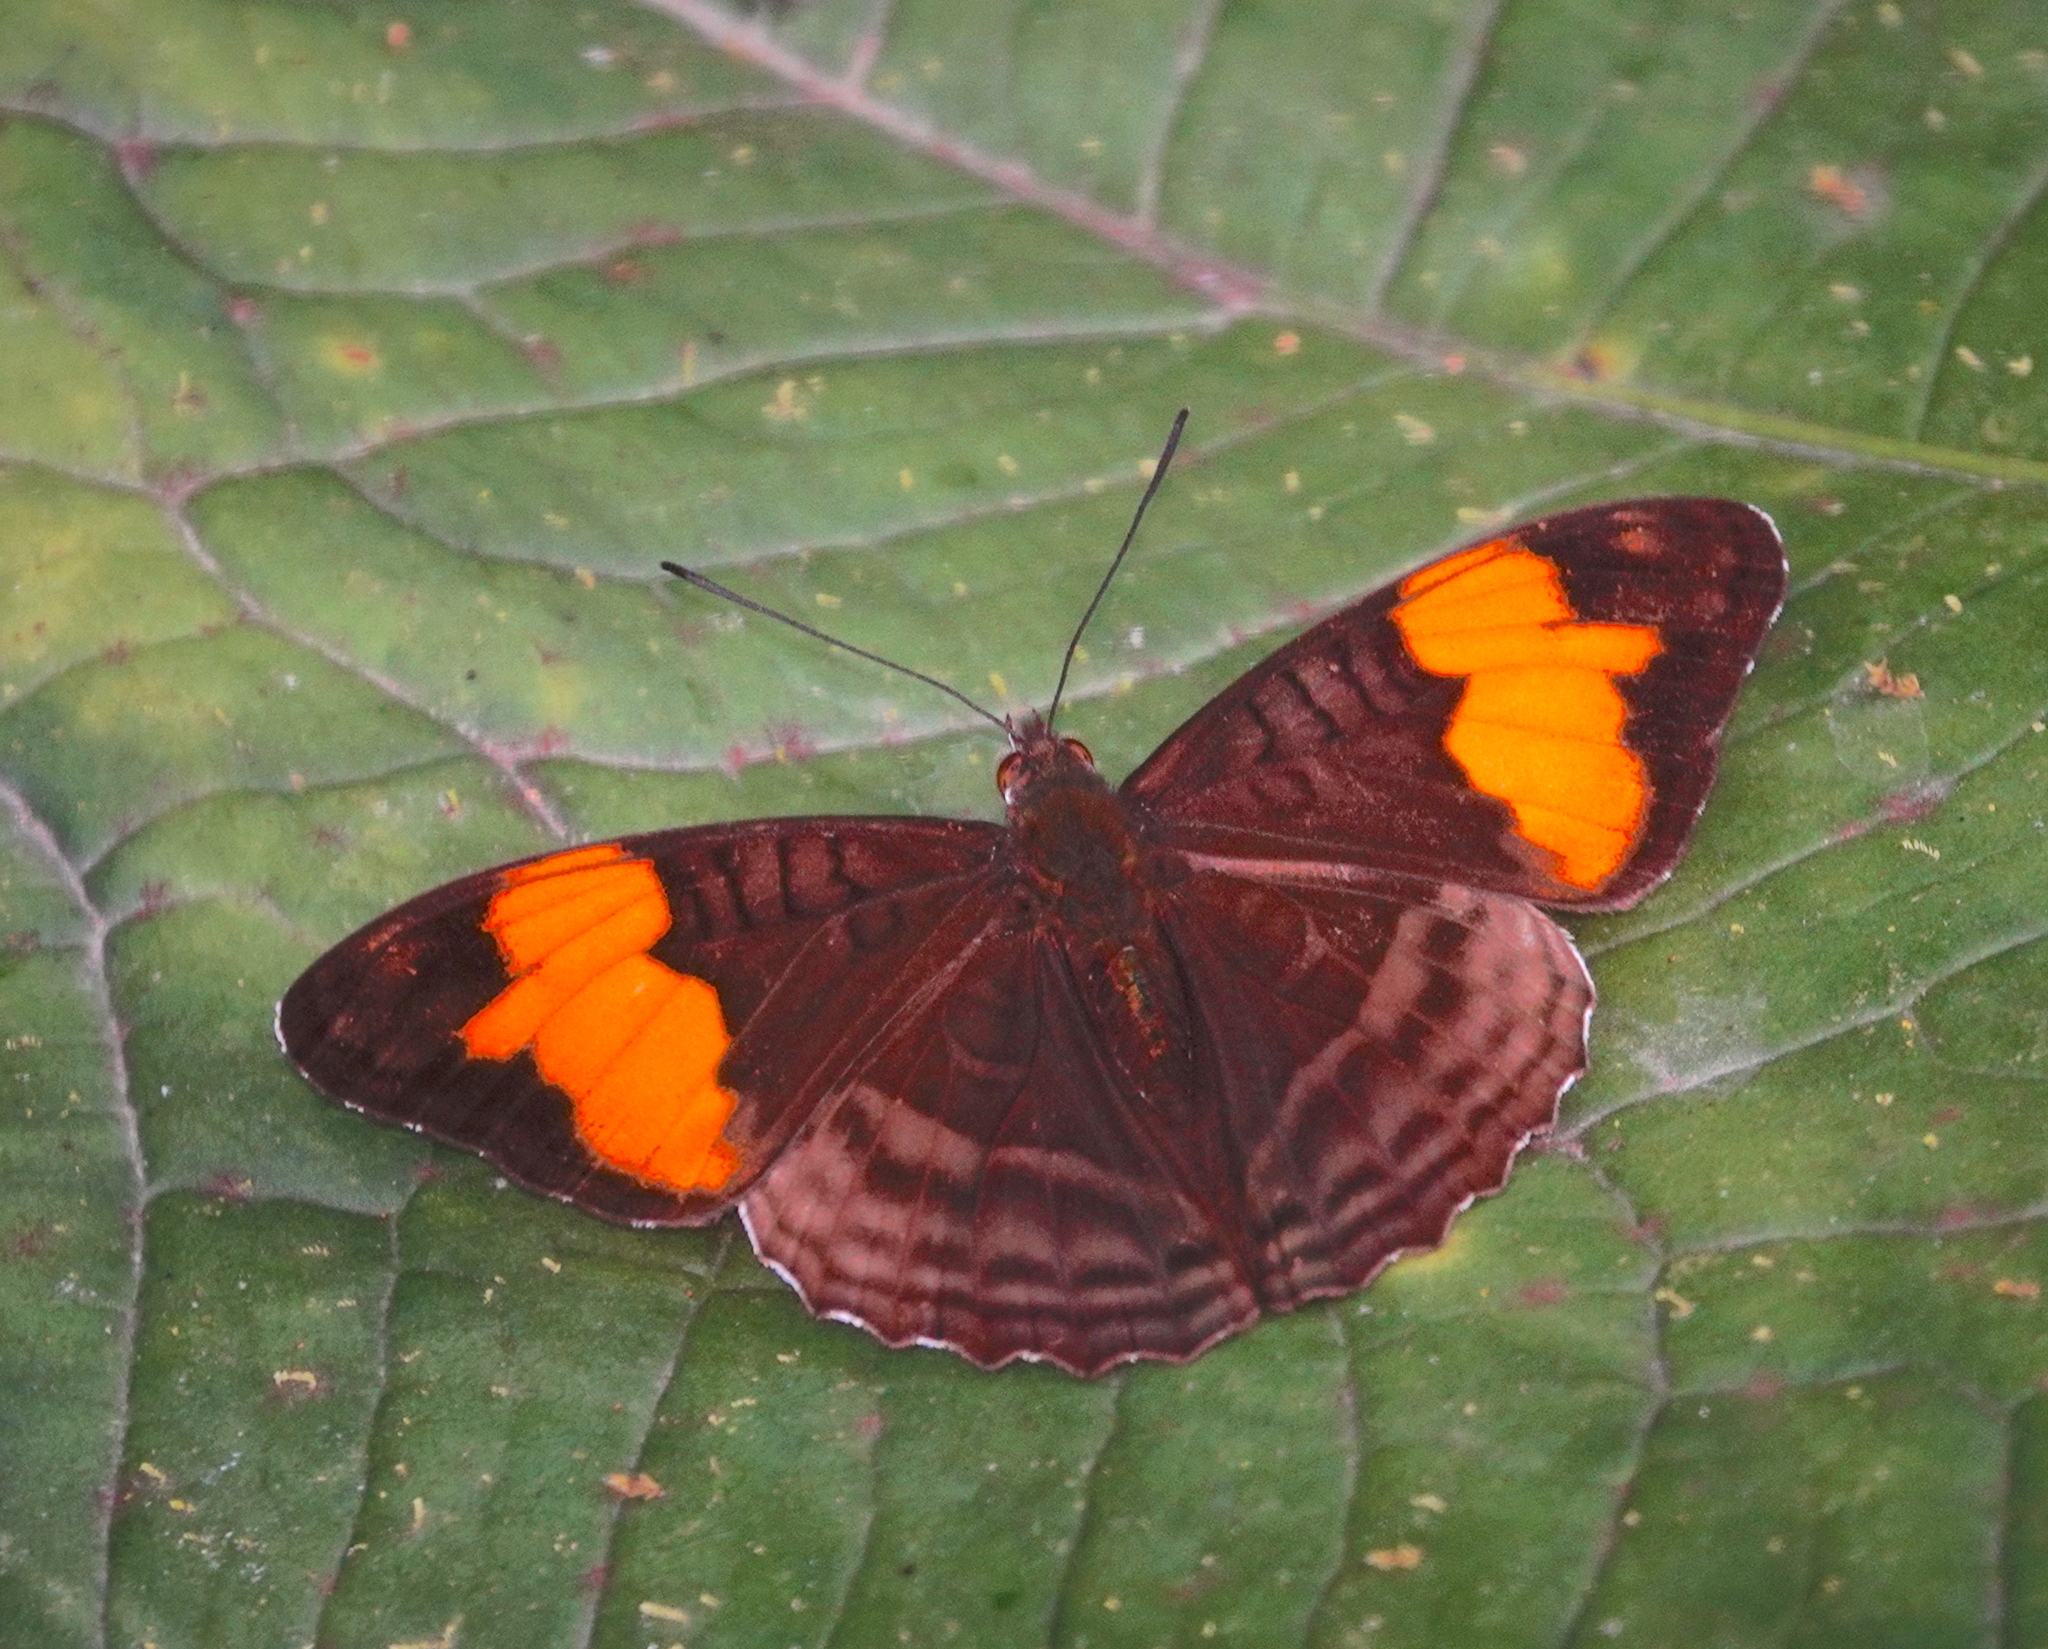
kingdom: Animalia
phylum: Arthropoda
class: Insecta
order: Lepidoptera
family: Nymphalidae
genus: Limenitis
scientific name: Limenitis saundersii
